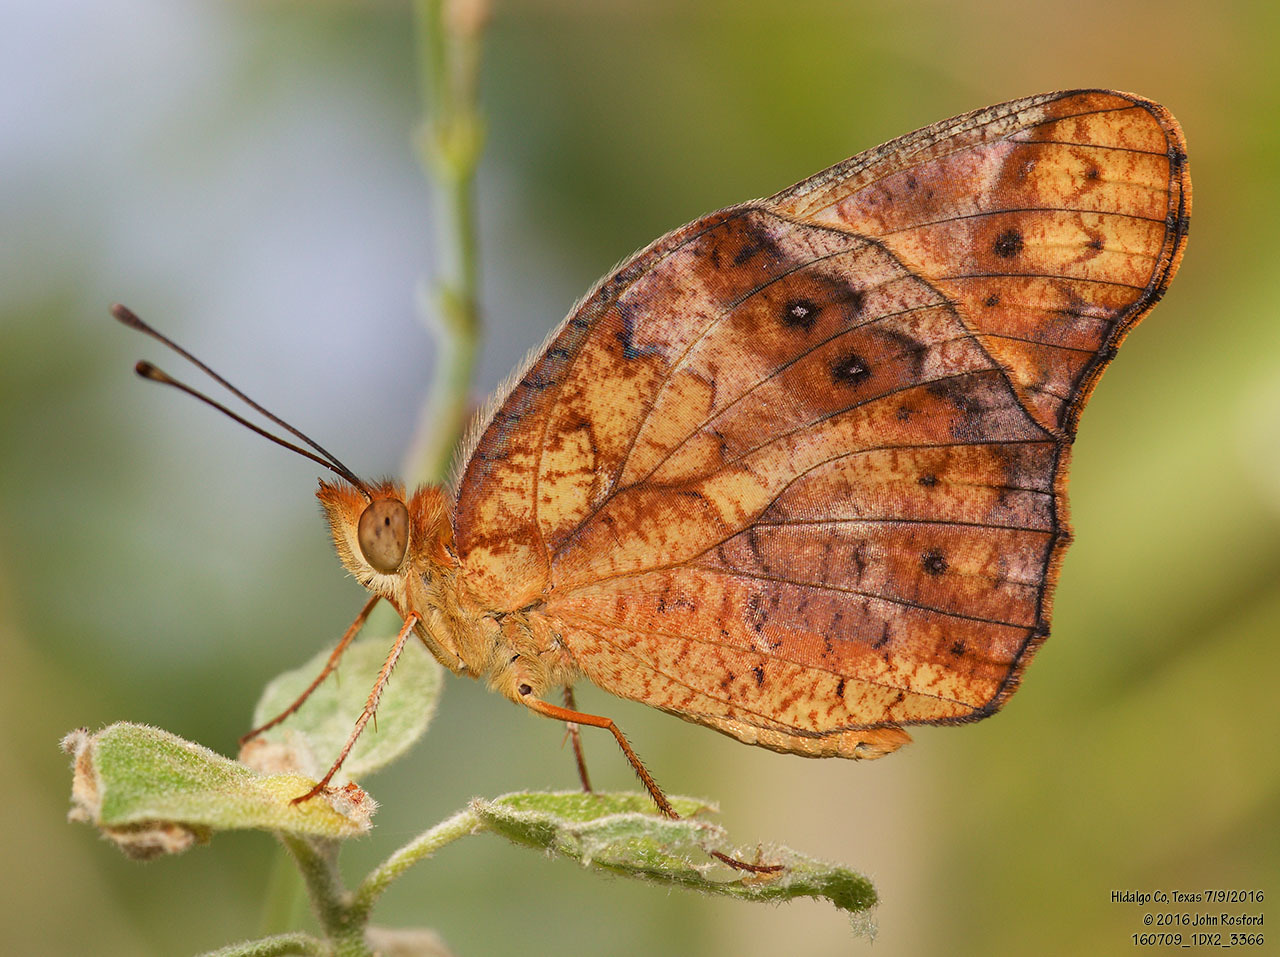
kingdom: Animalia
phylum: Arthropoda
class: Insecta
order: Lepidoptera
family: Nymphalidae
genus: Euptoieta
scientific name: Euptoieta hegesia
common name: Mexican fritillary
